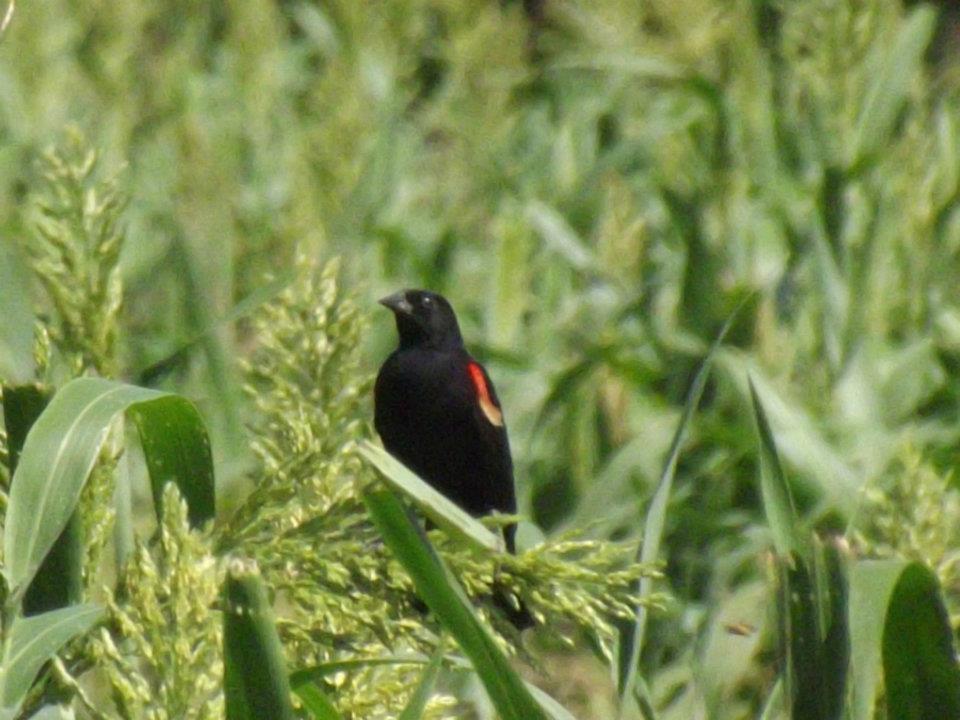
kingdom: Animalia
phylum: Chordata
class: Aves
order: Passeriformes
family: Icteridae
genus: Agelaius
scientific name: Agelaius phoeniceus
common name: Red-winged blackbird
